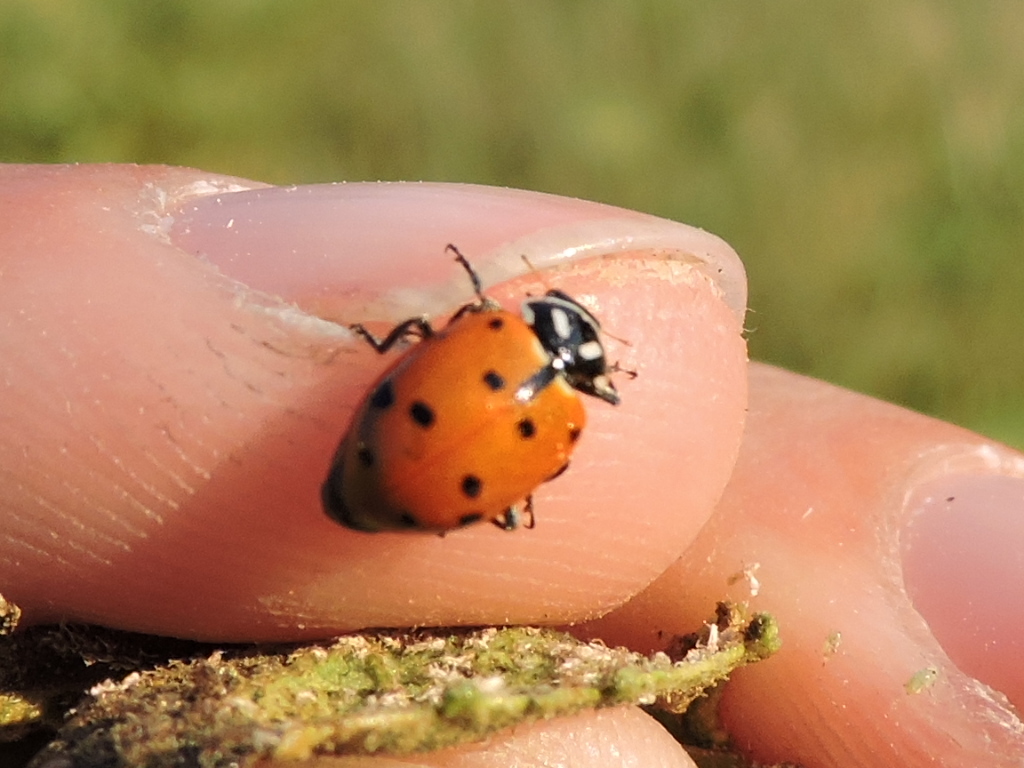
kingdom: Animalia
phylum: Arthropoda
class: Insecta
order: Coleoptera
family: Coccinellidae
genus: Hippodamia
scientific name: Hippodamia convergens
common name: Convergent lady beetle
